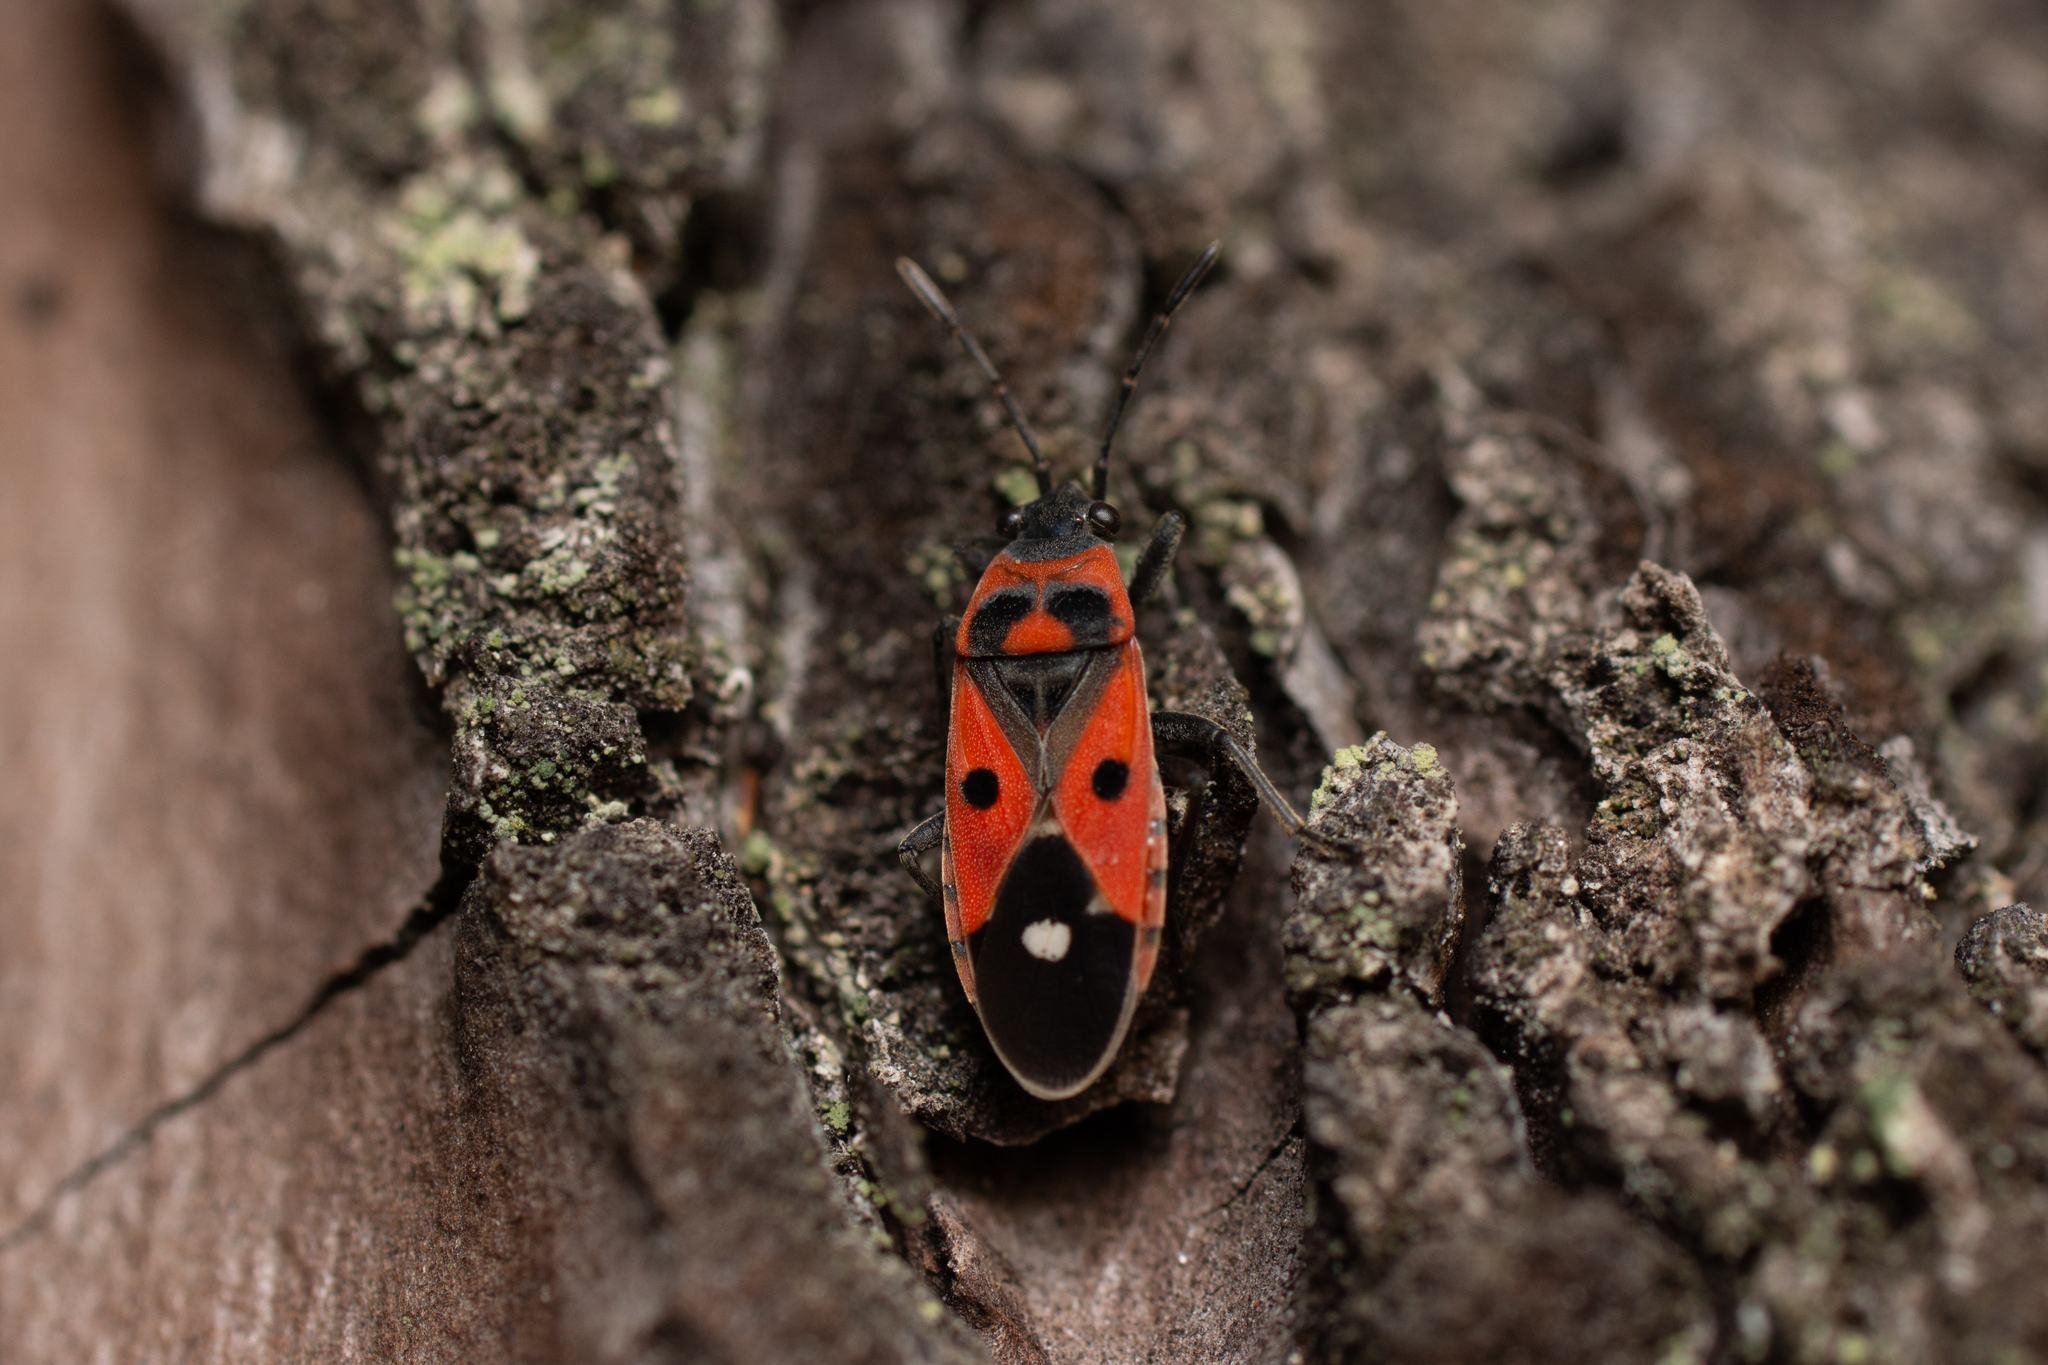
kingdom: Animalia
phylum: Arthropoda
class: Insecta
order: Hemiptera
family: Lygaeidae
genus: Melanocoryphus
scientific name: Melanocoryphus albomaculatus
